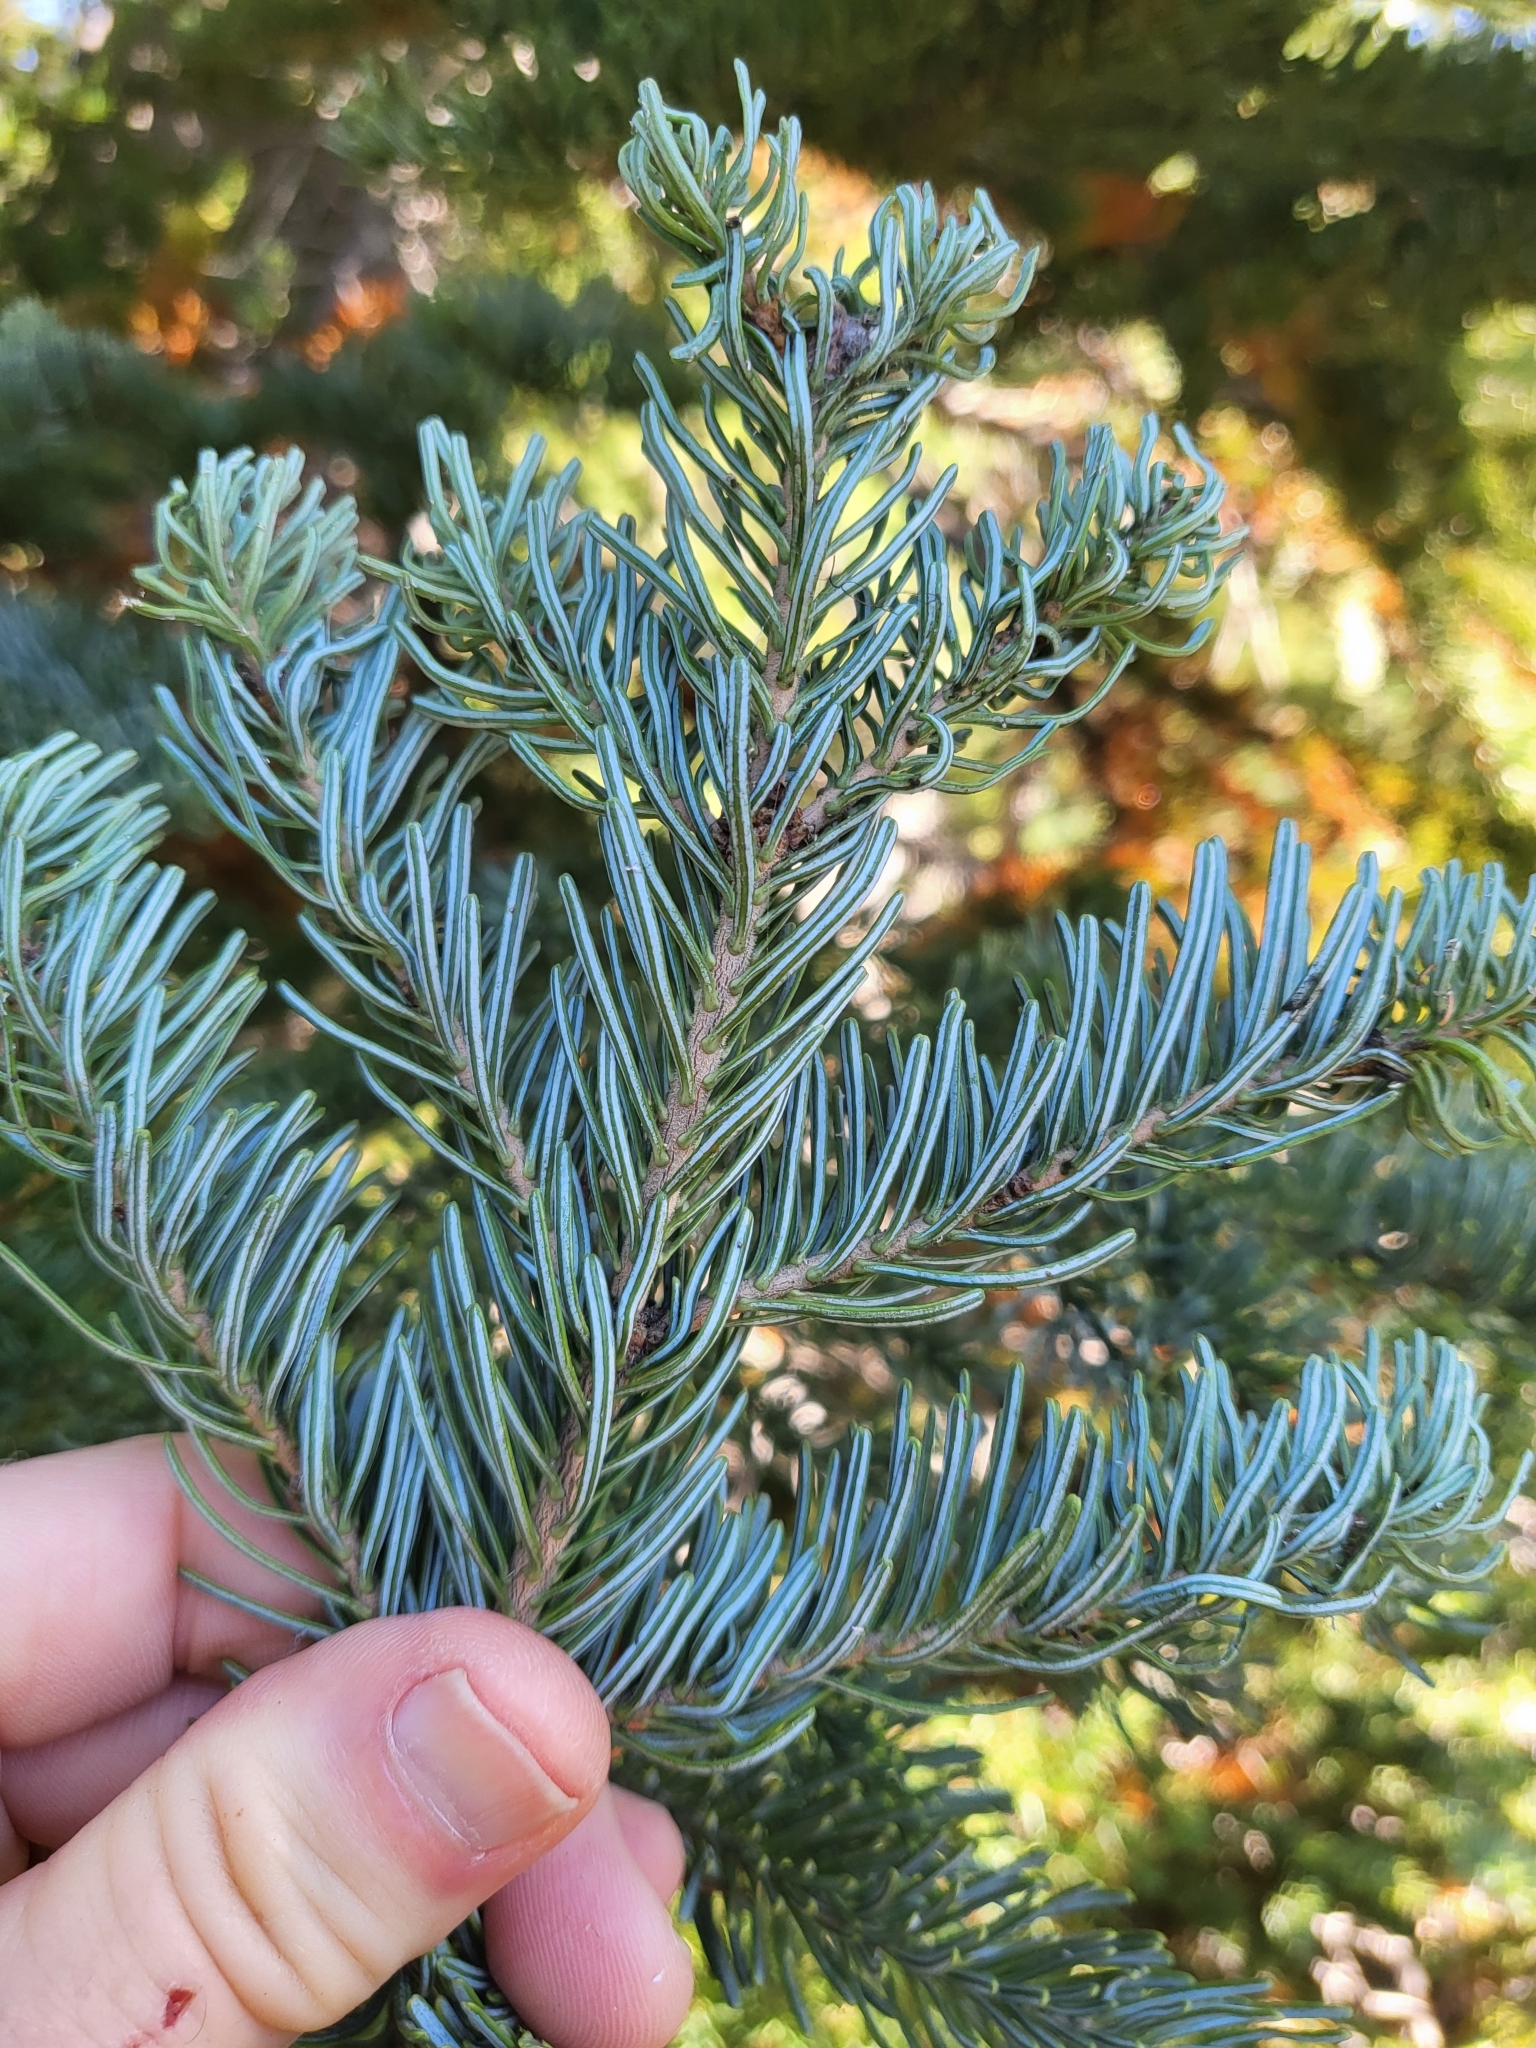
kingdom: Plantae
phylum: Tracheophyta
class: Pinopsida
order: Pinales
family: Pinaceae
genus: Abies
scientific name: Abies lasiocarpa
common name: Subalpine fir
